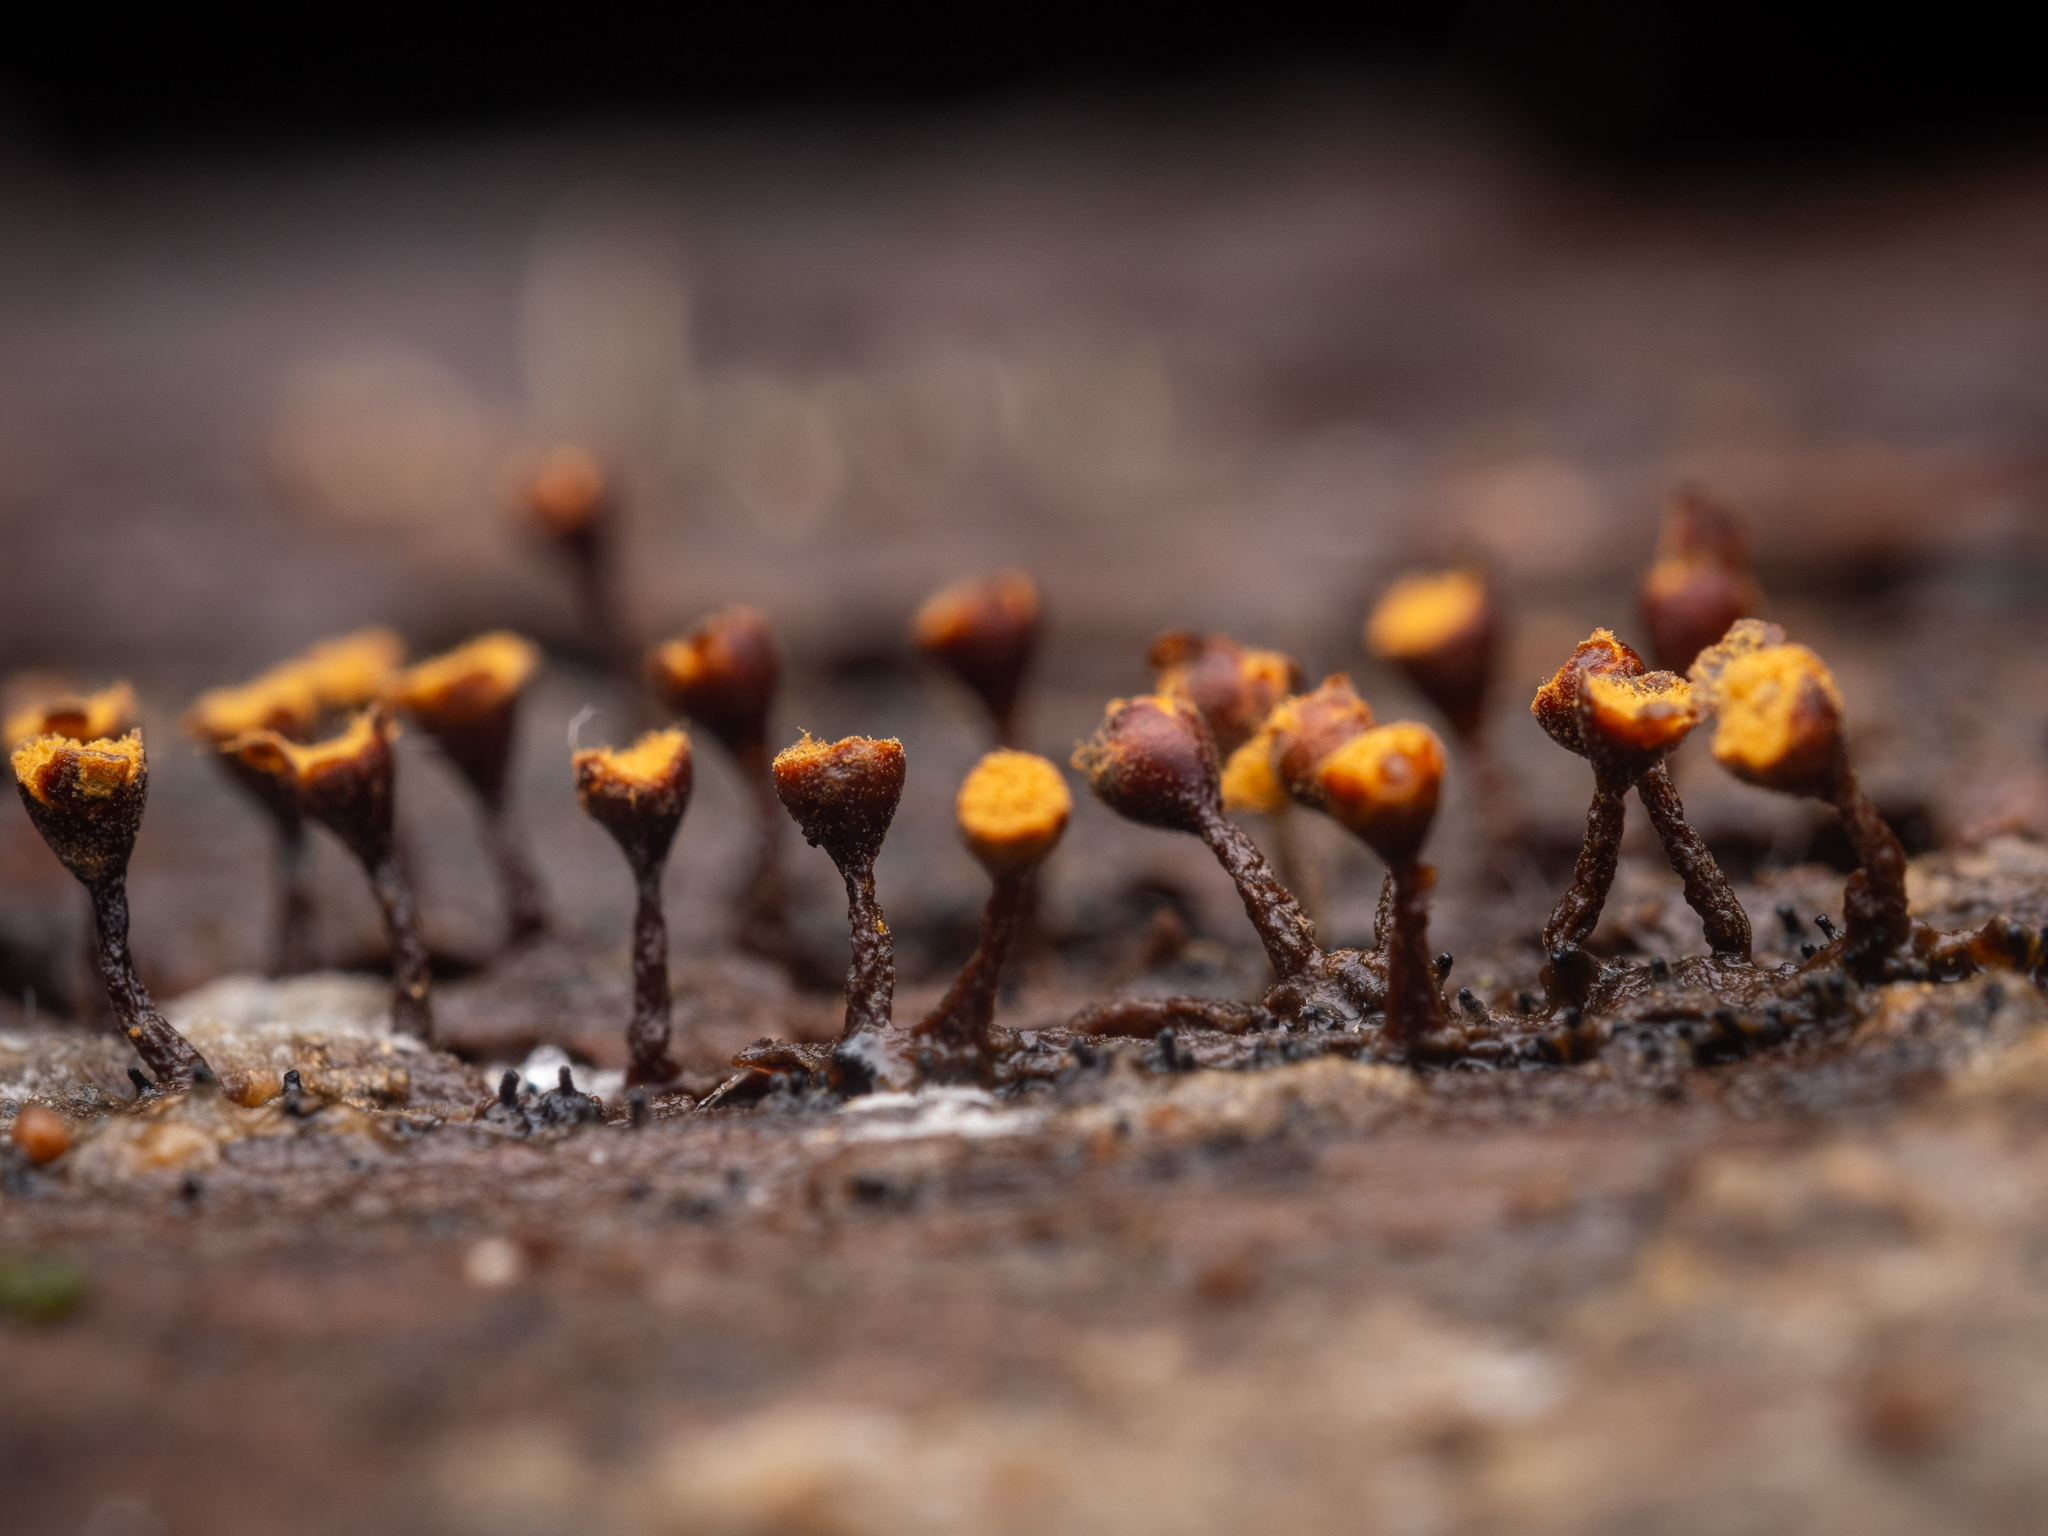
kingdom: Protozoa
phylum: Mycetozoa
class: Myxomycetes
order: Trichiales
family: Trichiaceae
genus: Trichia
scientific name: Trichia botrytis
